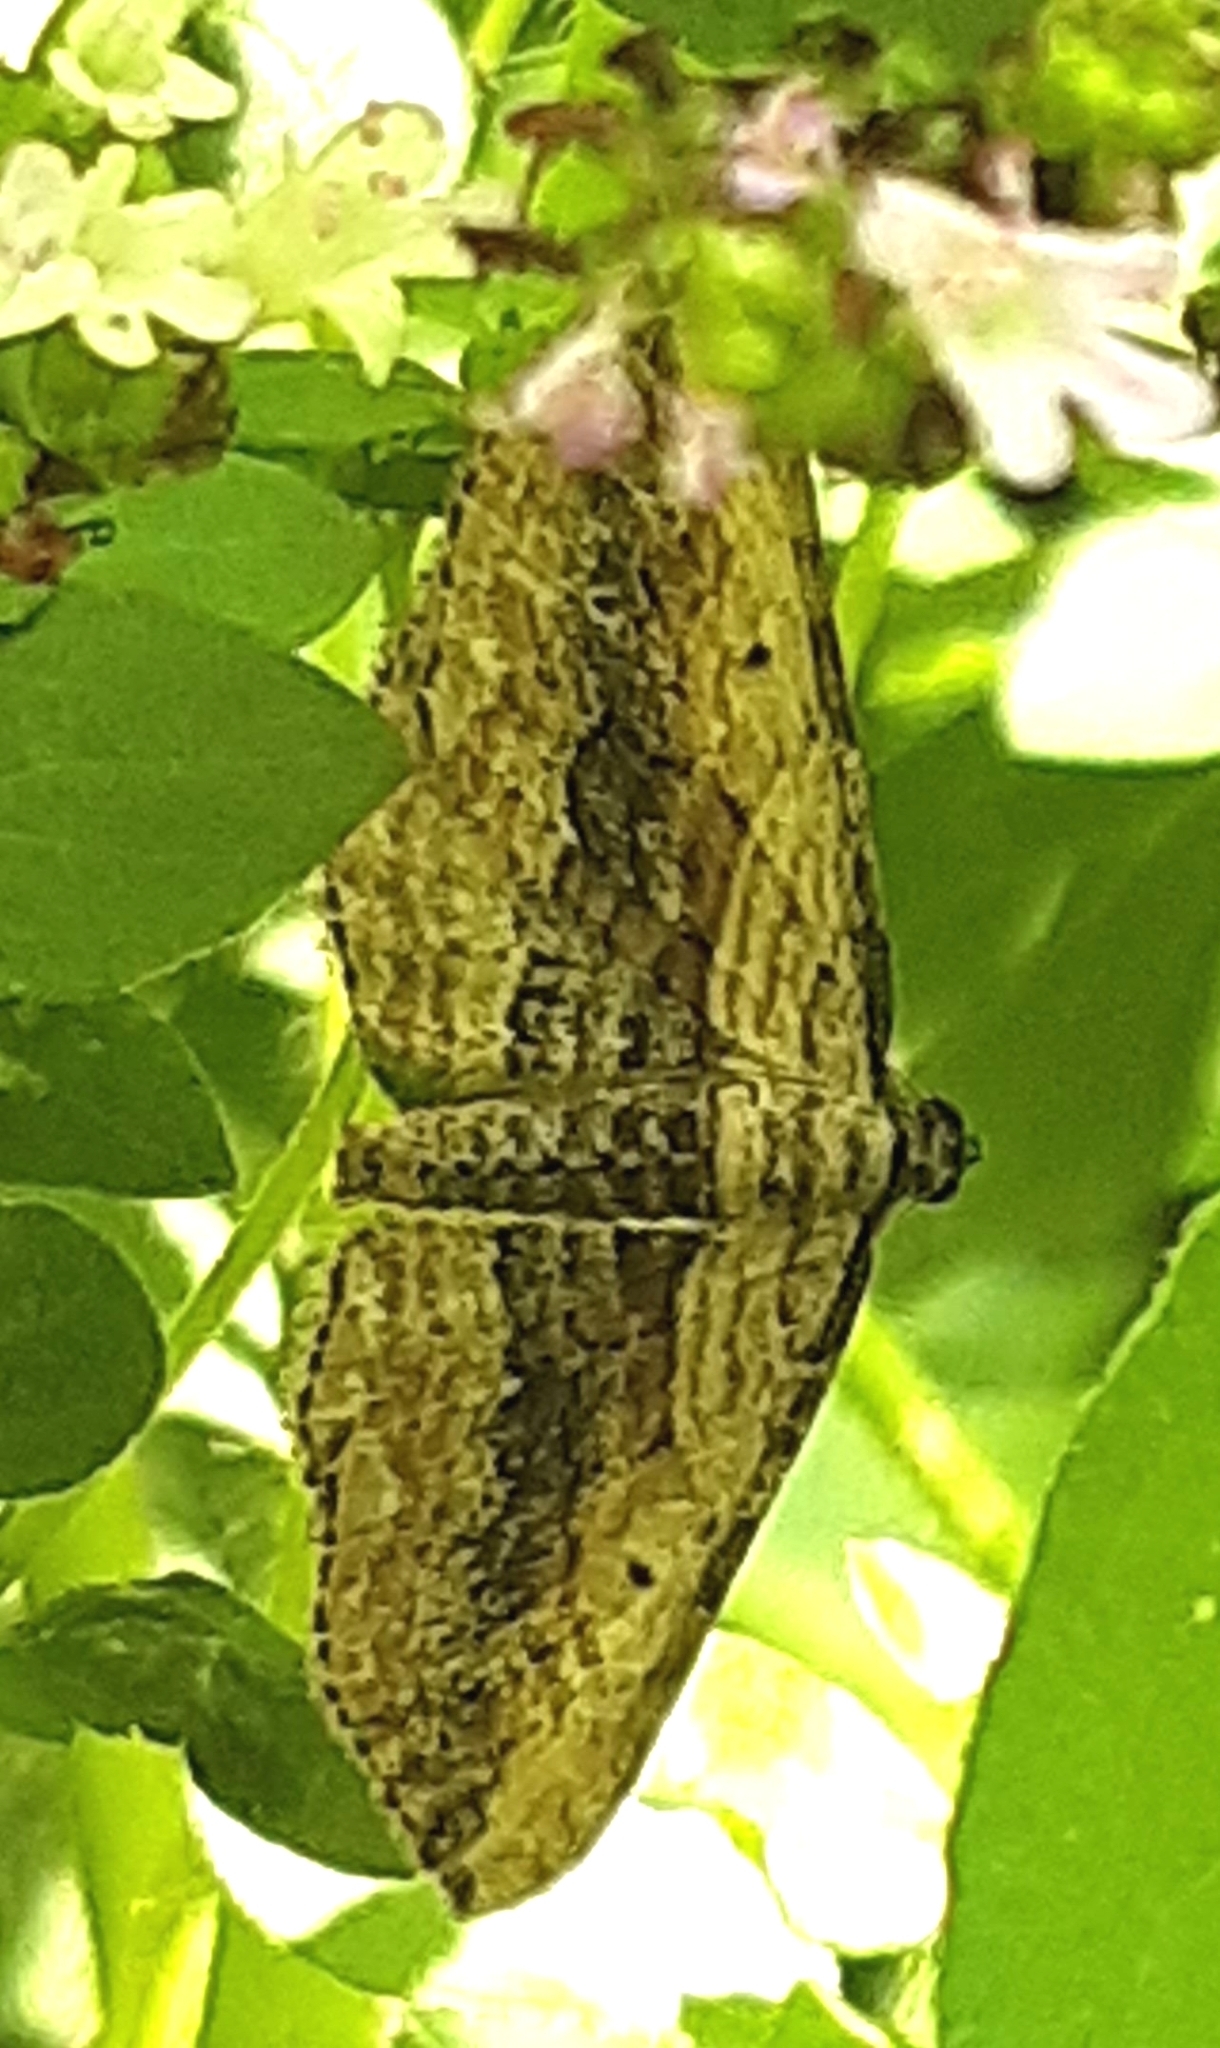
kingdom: Animalia
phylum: Arthropoda
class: Insecta
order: Lepidoptera
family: Geometridae
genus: Horisme
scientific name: Horisme vitalbata
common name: Small waved umber
